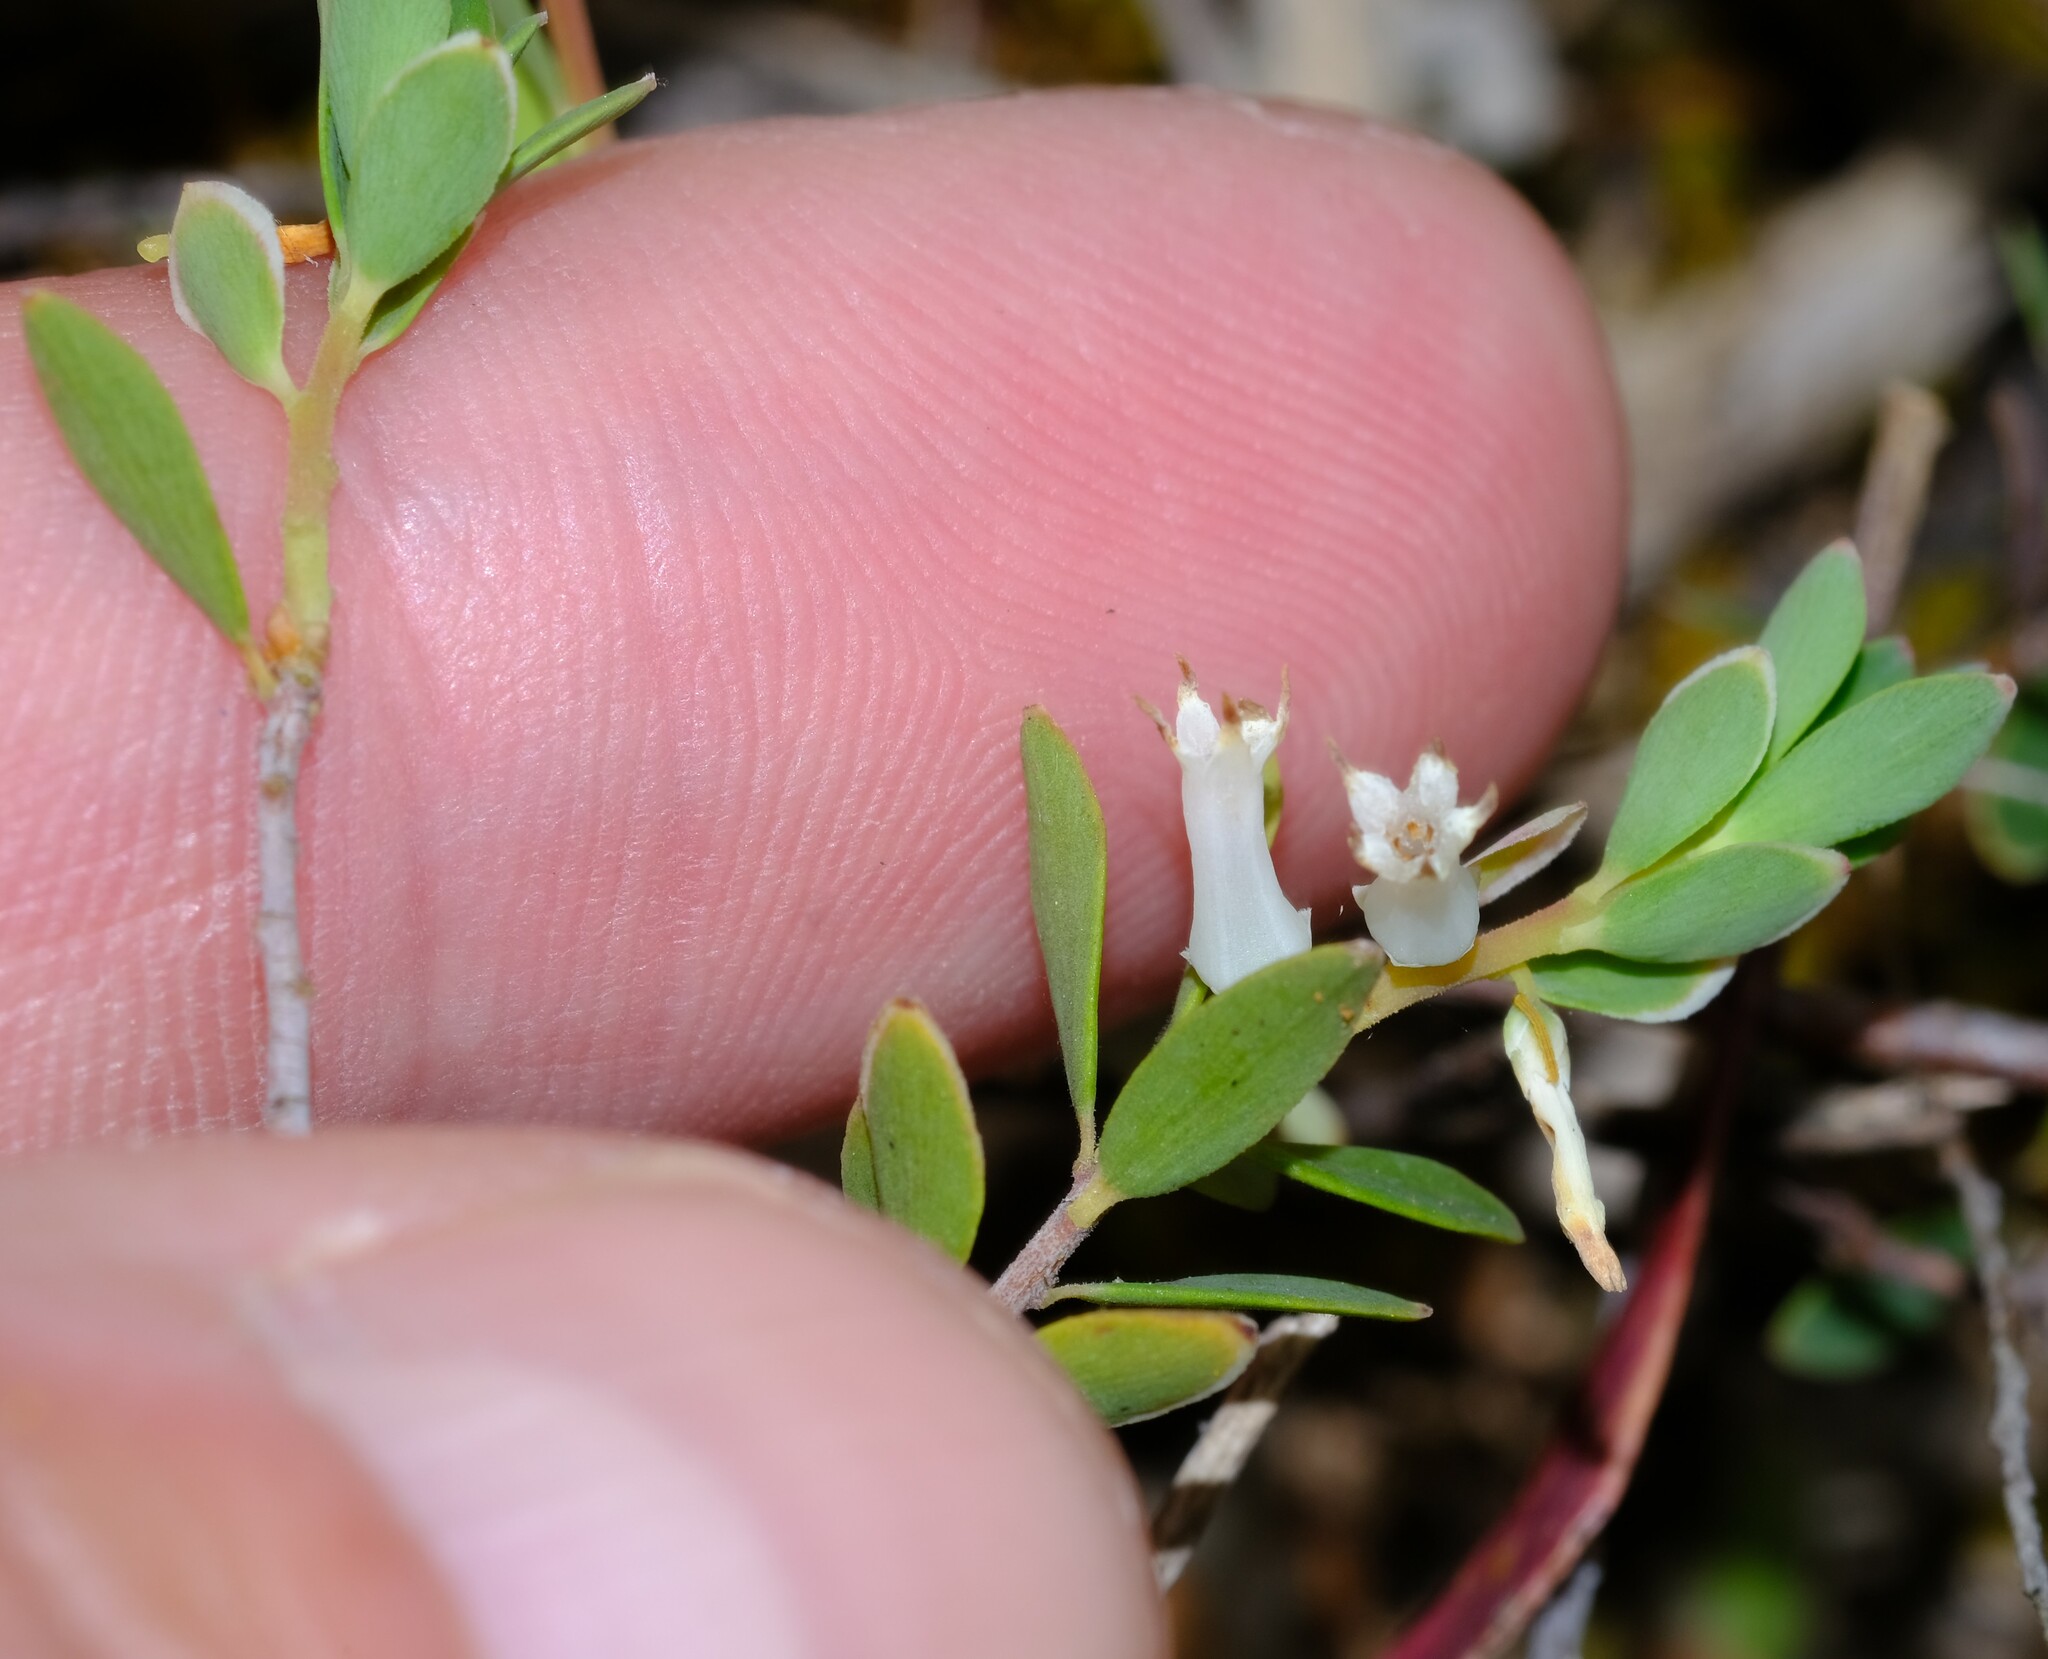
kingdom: Plantae
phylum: Tracheophyta
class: Magnoliopsida
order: Ericales
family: Ericaceae
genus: Brachyloma
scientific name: Brachyloma daphnoides
